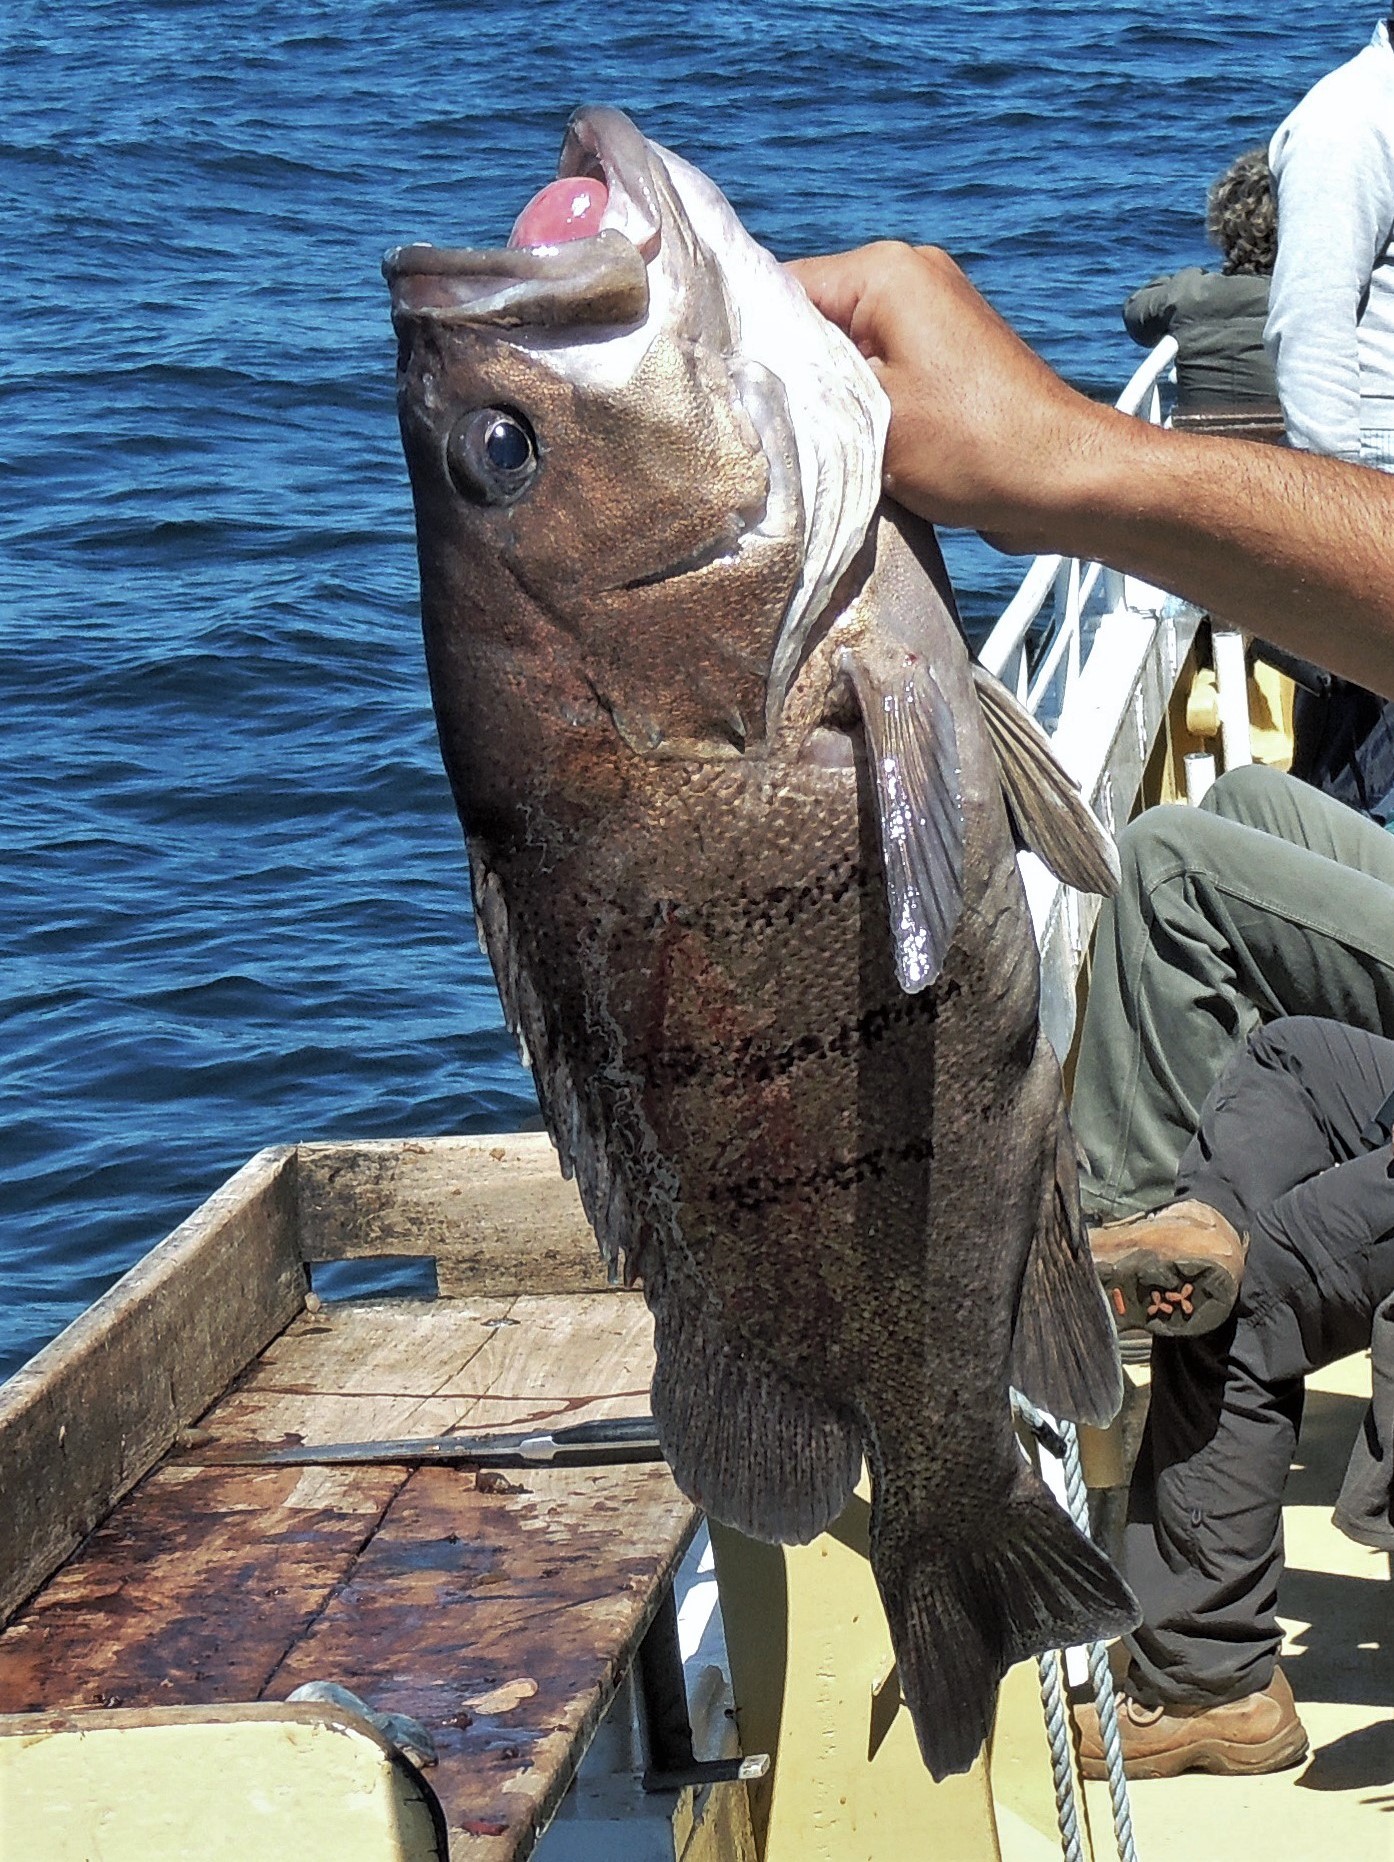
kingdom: Animalia
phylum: Chordata
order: Perciformes
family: Serranidae
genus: Acanthistius
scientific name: Acanthistius patachonicus
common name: Patagonian grouper
